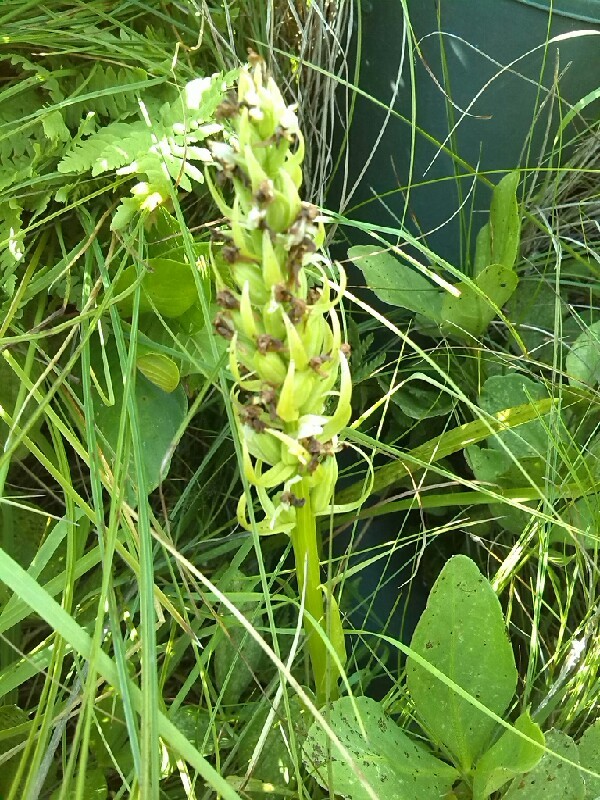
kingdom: Plantae
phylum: Tracheophyta
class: Liliopsida
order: Asparagales
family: Orchidaceae
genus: Dactylorhiza
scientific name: Dactylorhiza incarnata
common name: Early marsh-orchid
